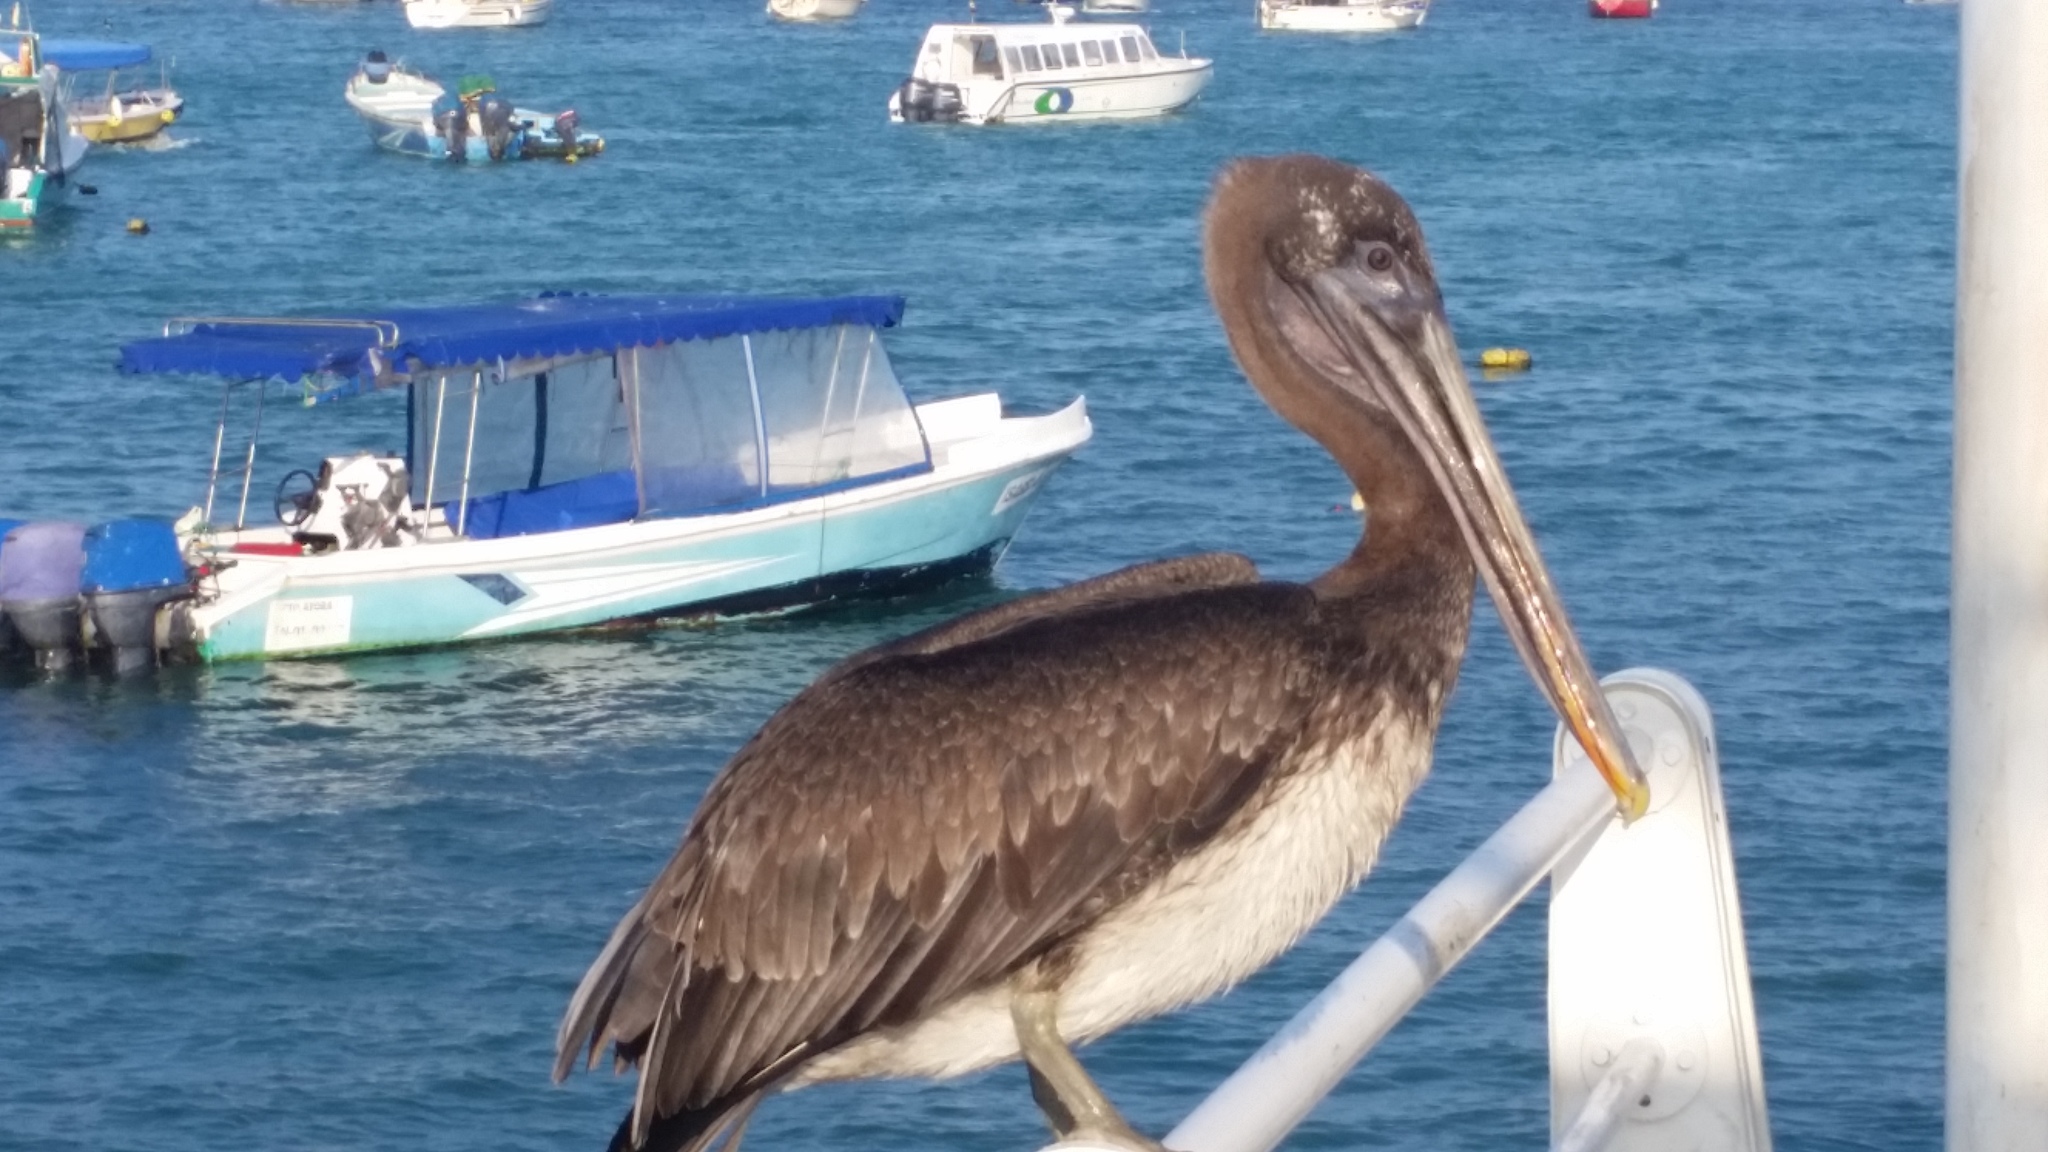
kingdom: Animalia
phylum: Chordata
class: Aves
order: Pelecaniformes
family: Pelecanidae
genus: Pelecanus
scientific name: Pelecanus occidentalis
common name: Brown pelican
